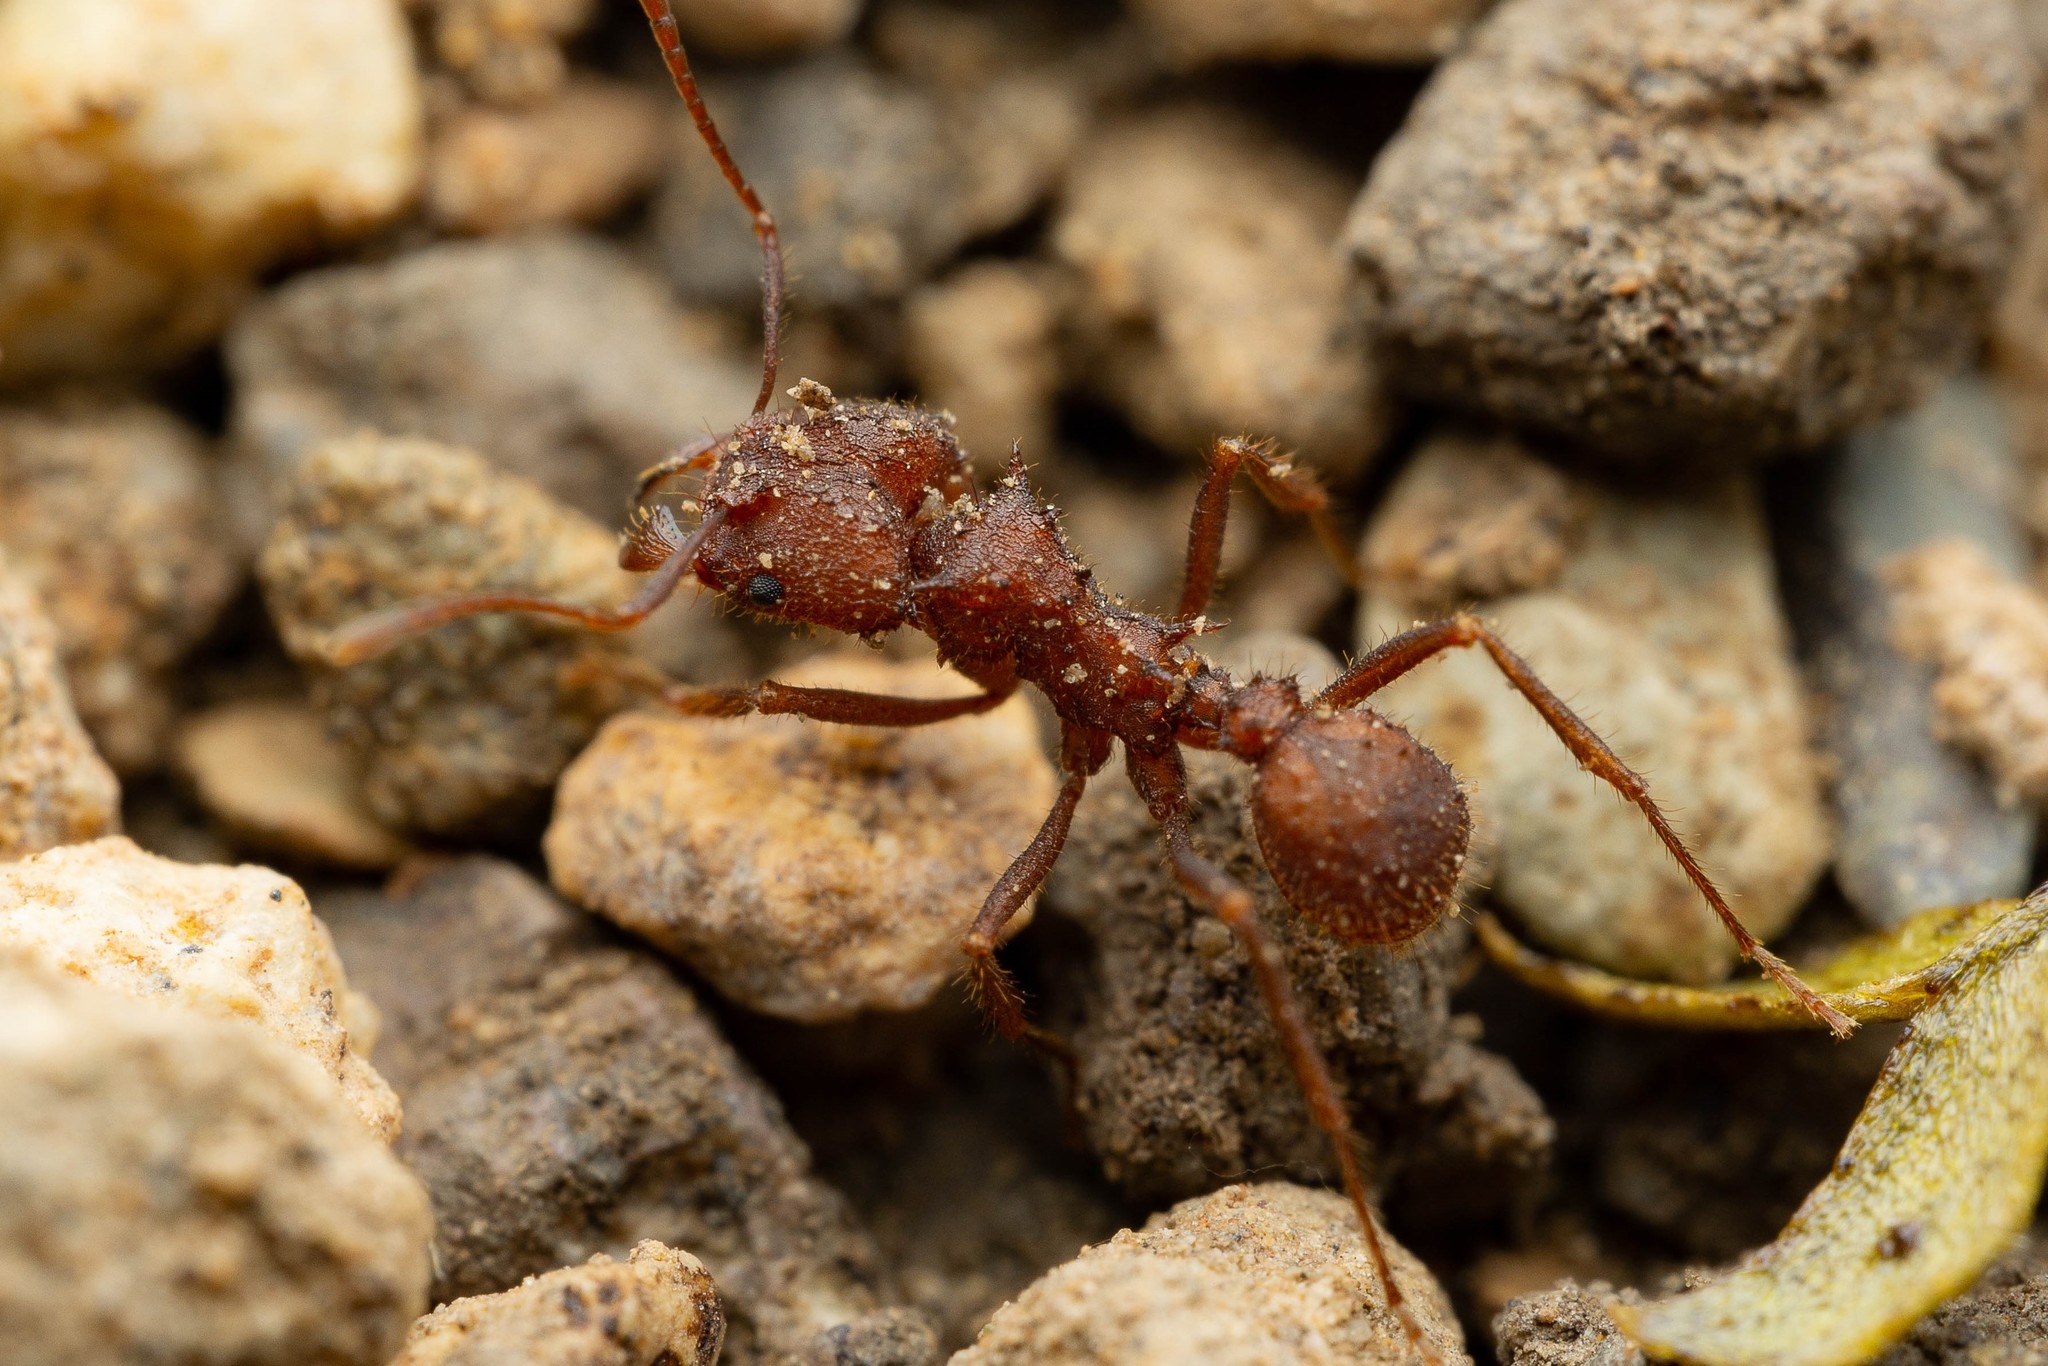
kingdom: Animalia
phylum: Arthropoda
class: Insecta
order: Hymenoptera
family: Formicidae
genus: Acromyrmex
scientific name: Acromyrmex versicolor
